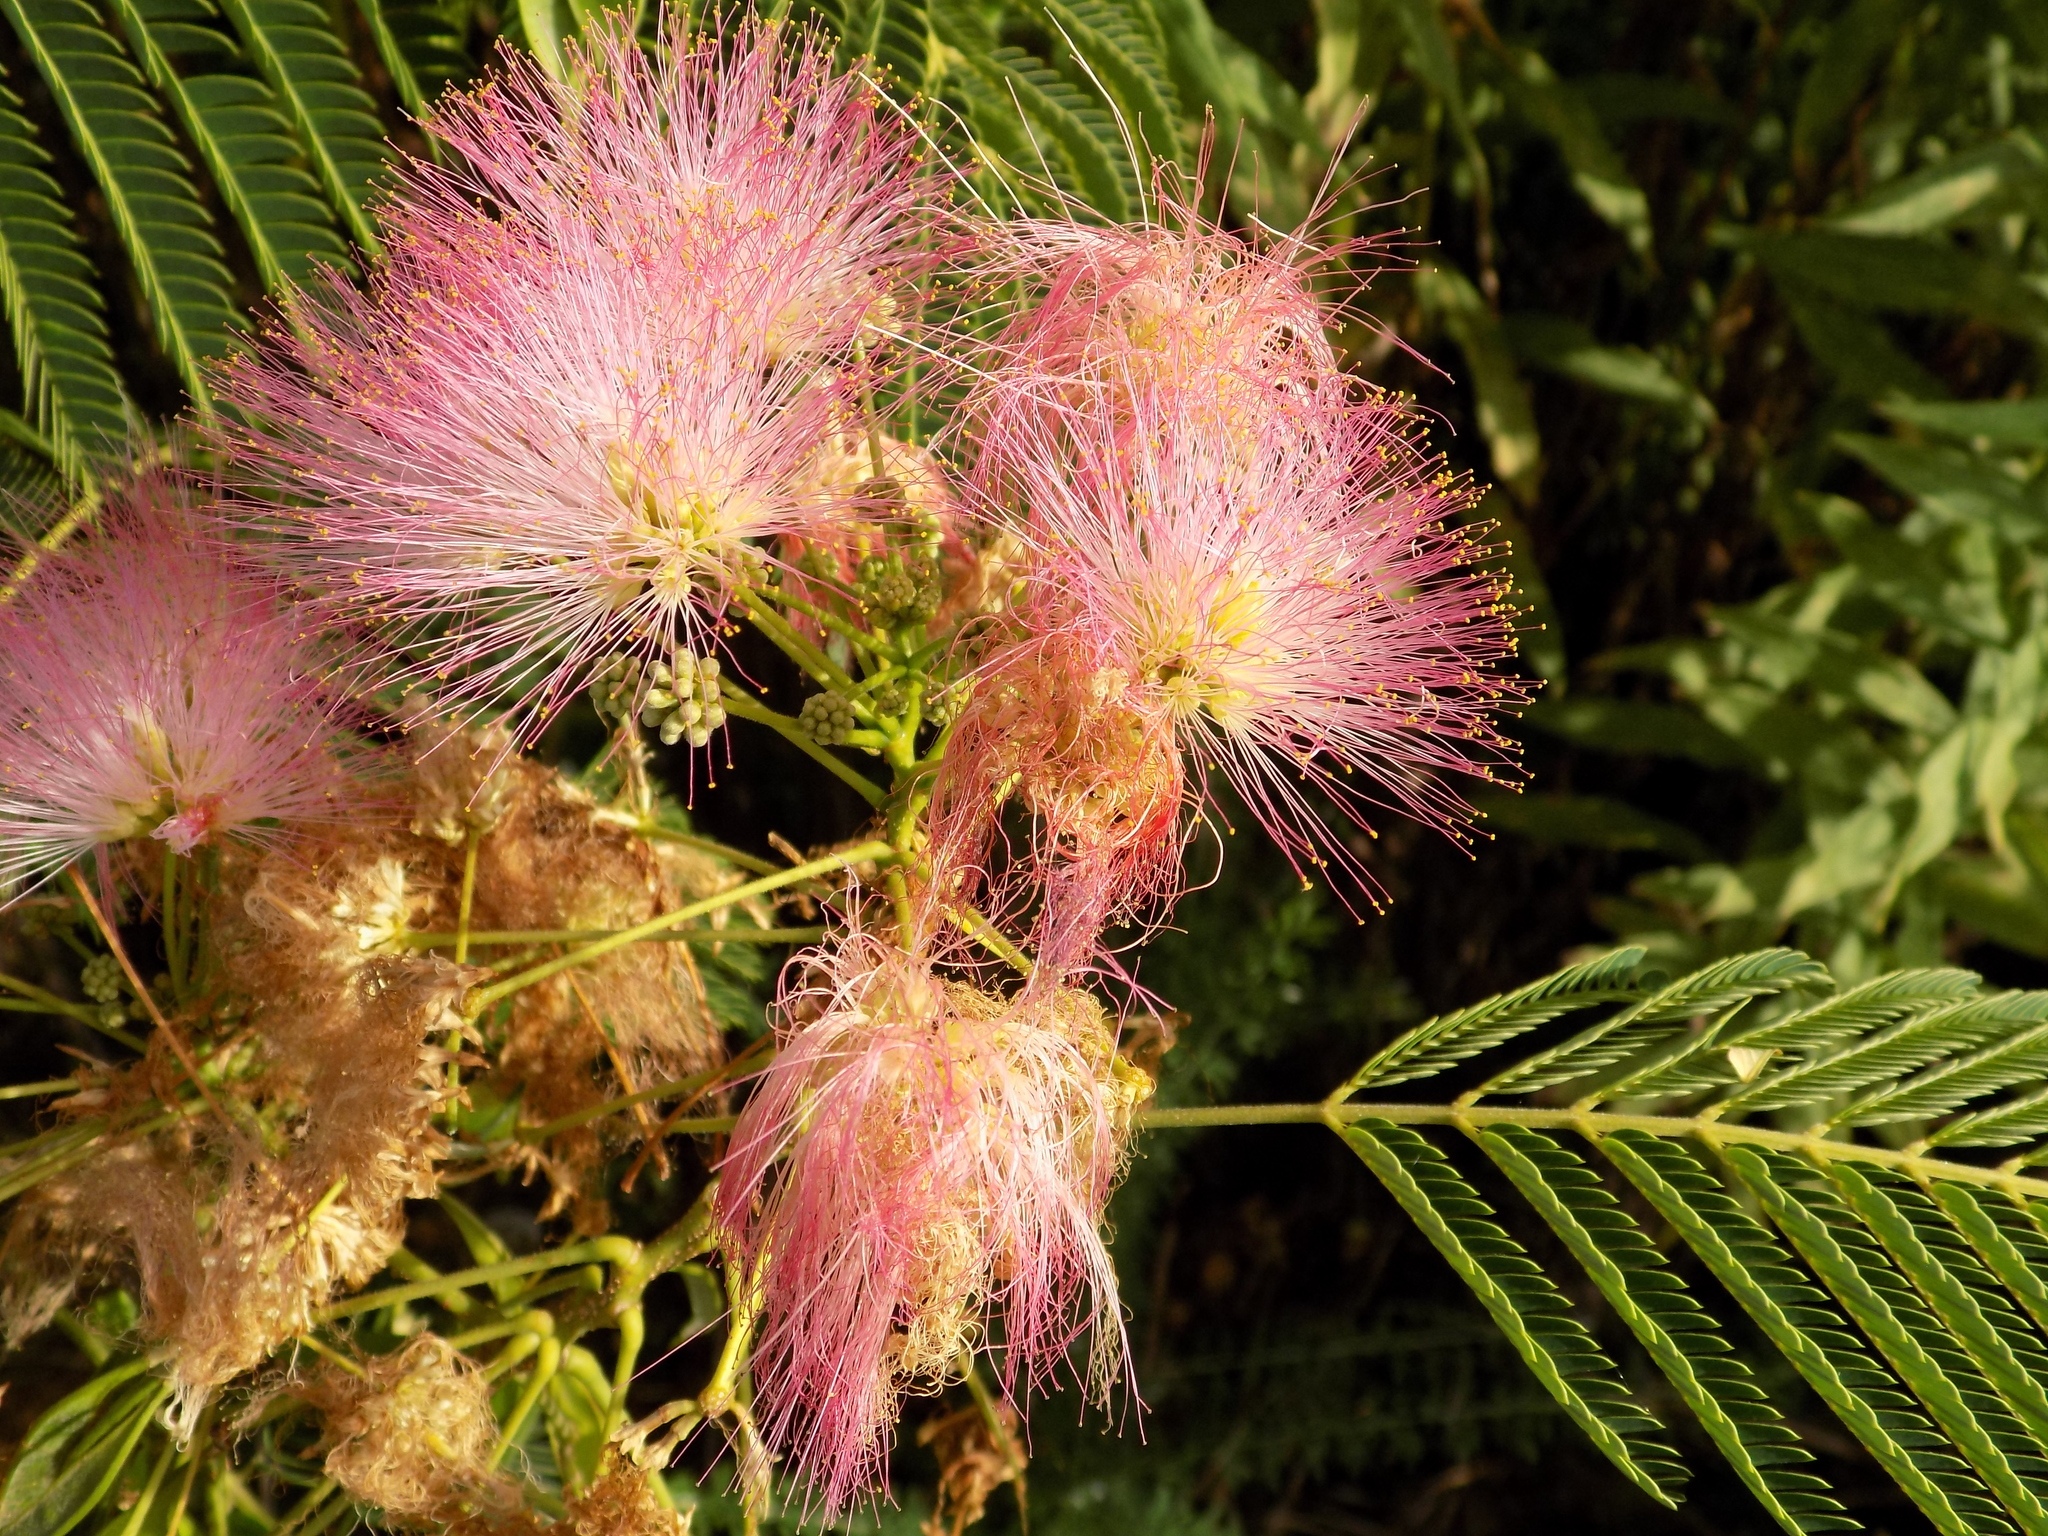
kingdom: Plantae
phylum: Tracheophyta
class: Magnoliopsida
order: Fabales
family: Fabaceae
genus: Albizia
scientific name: Albizia julibrissin
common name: Silktree
